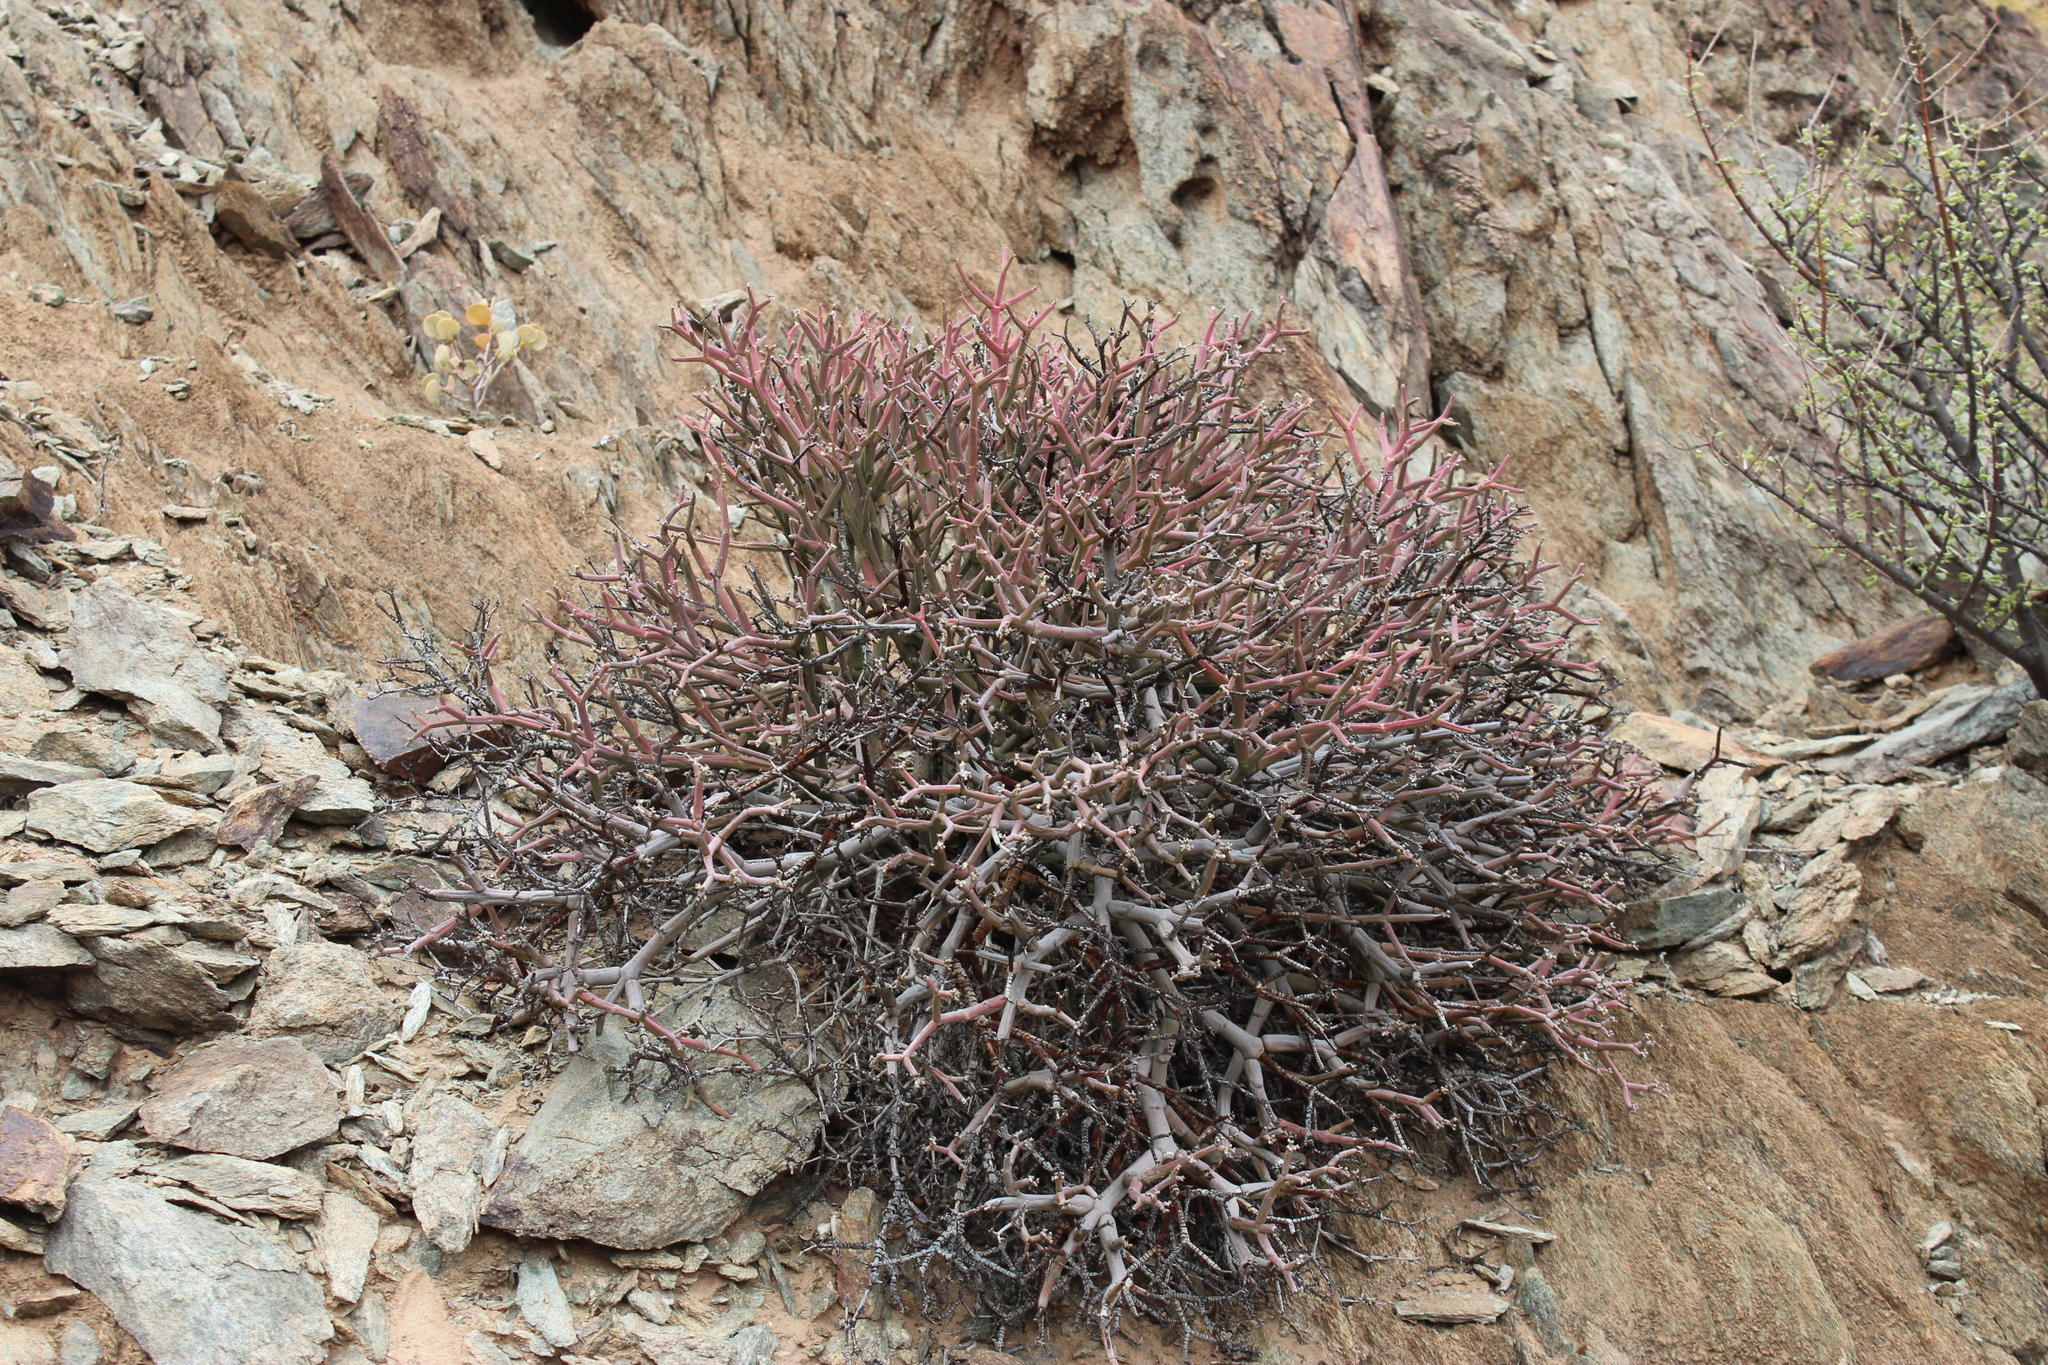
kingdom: Plantae
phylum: Tracheophyta
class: Magnoliopsida
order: Malpighiales
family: Euphorbiaceae
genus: Euphorbia
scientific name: Euphorbia rhombifolia
